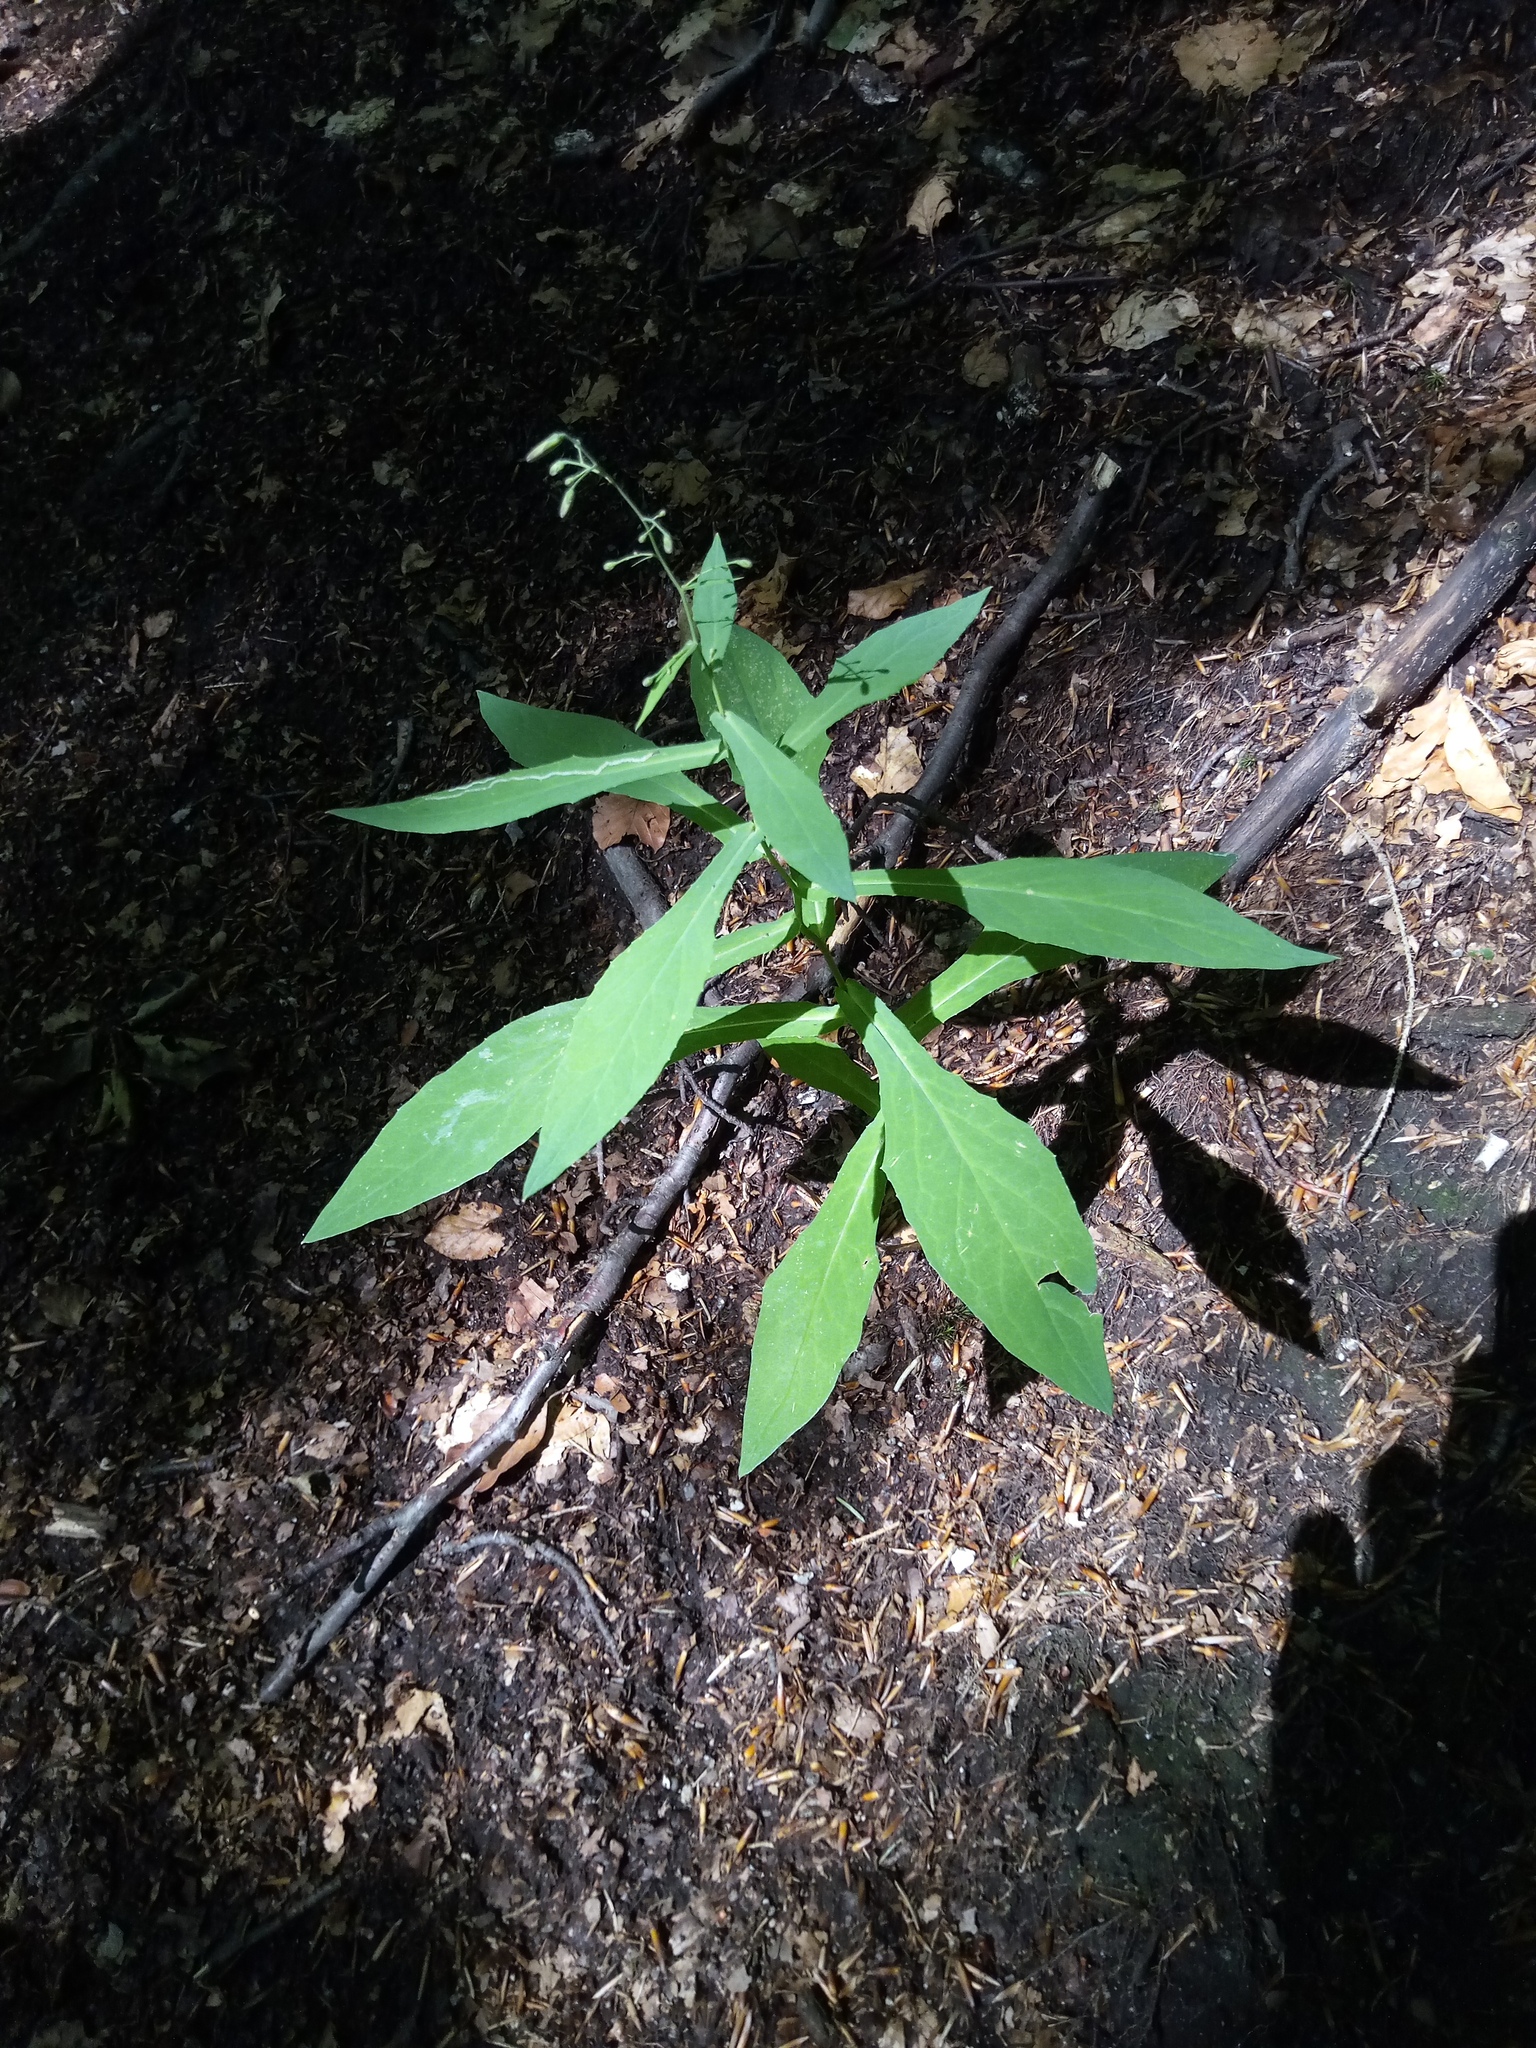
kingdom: Plantae
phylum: Tracheophyta
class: Magnoliopsida
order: Asterales
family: Asteraceae
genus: Prenanthes
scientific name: Prenanthes purpurea
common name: Purple lettuce
